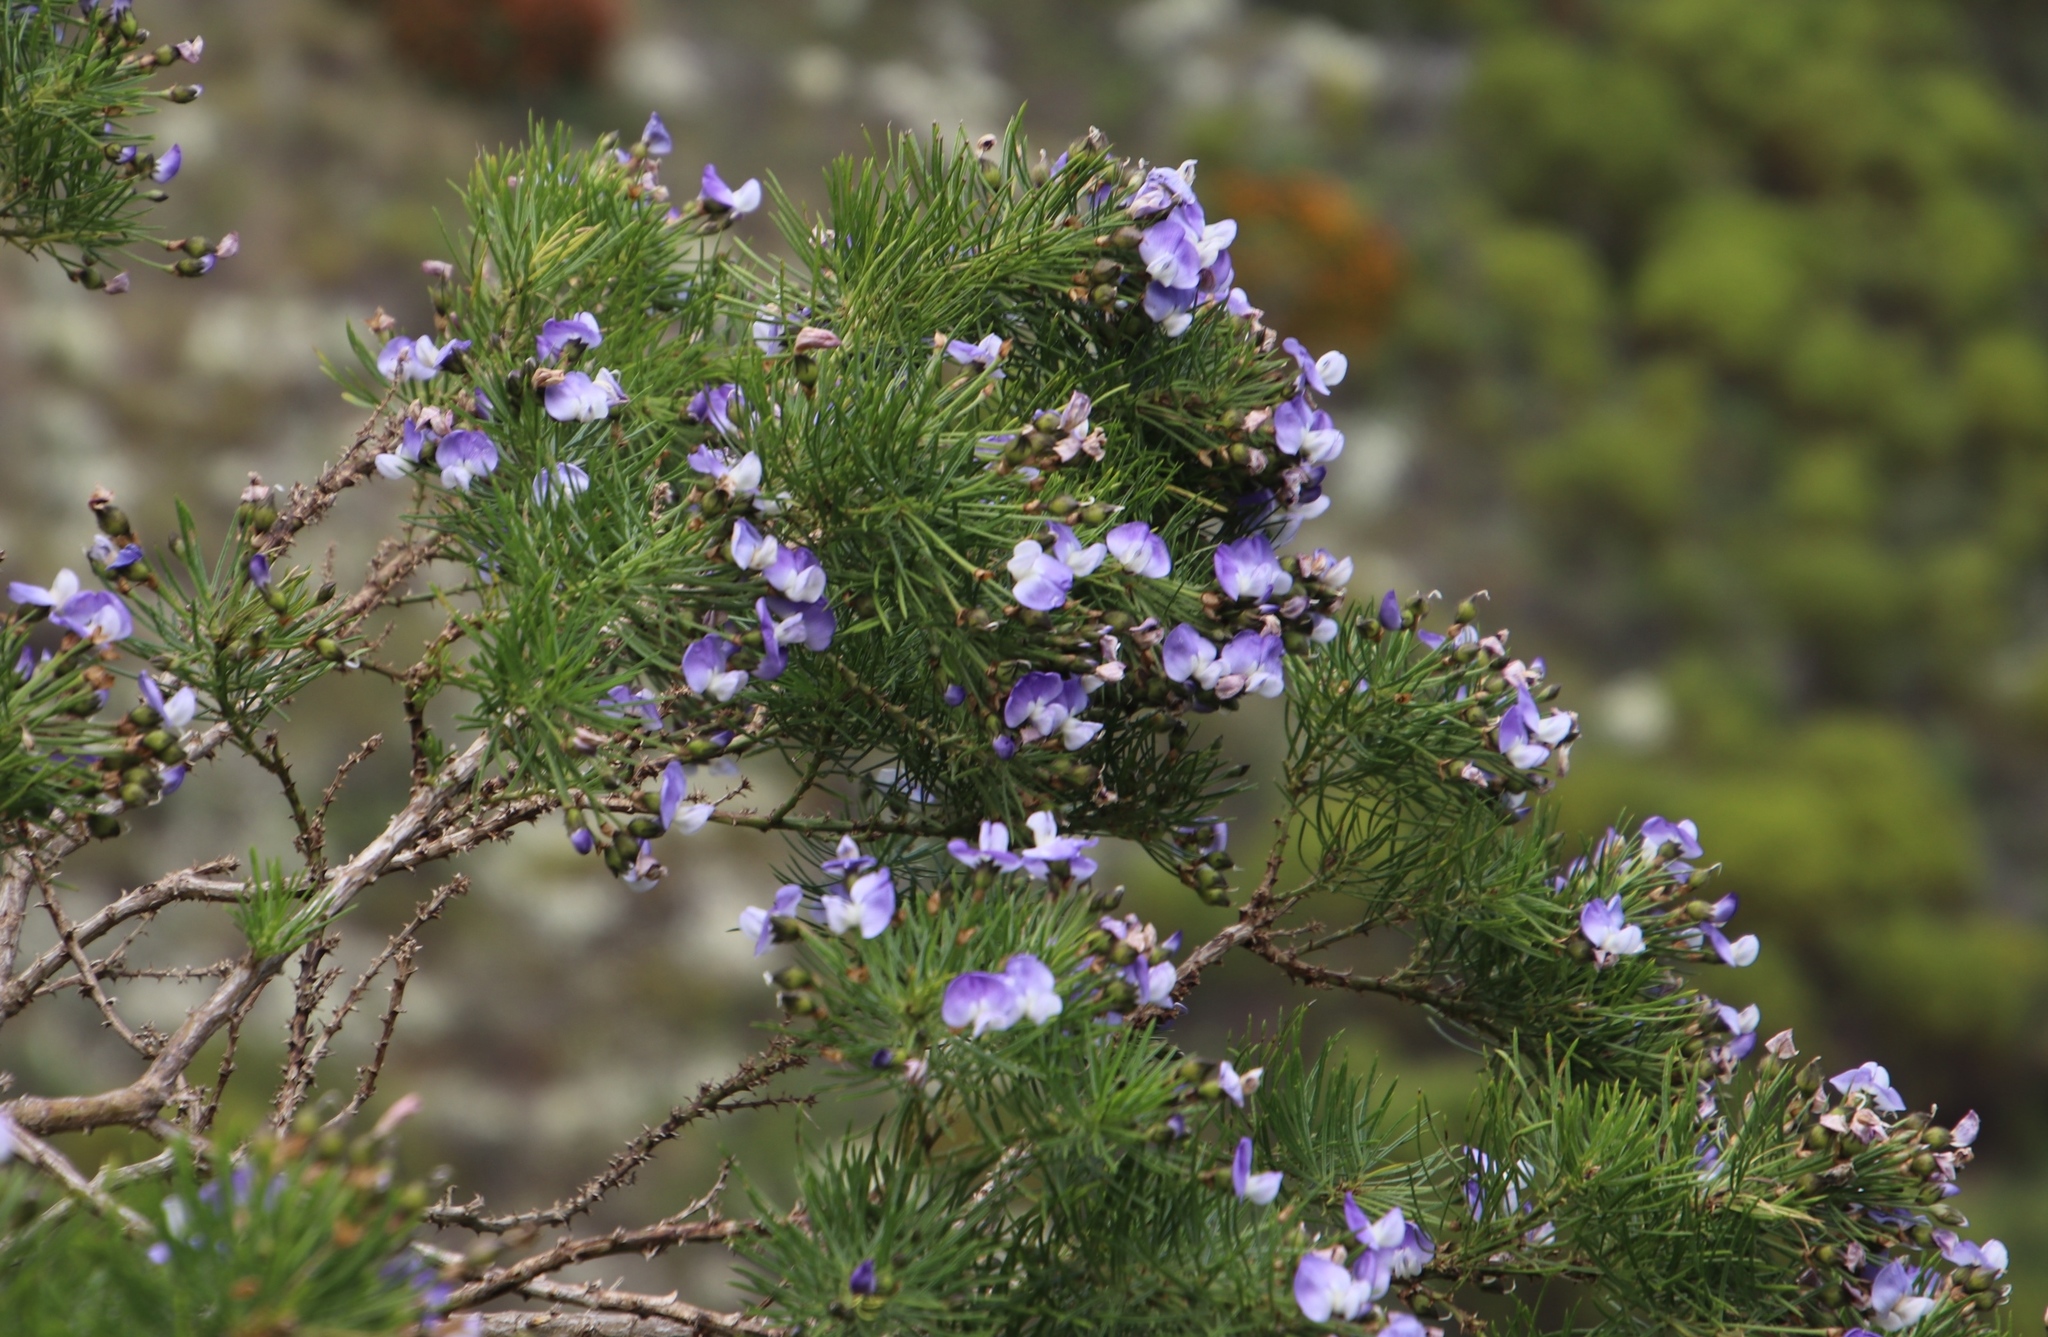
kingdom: Plantae
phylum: Tracheophyta
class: Magnoliopsida
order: Fabales
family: Fabaceae
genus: Psoralea
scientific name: Psoralea arborea
